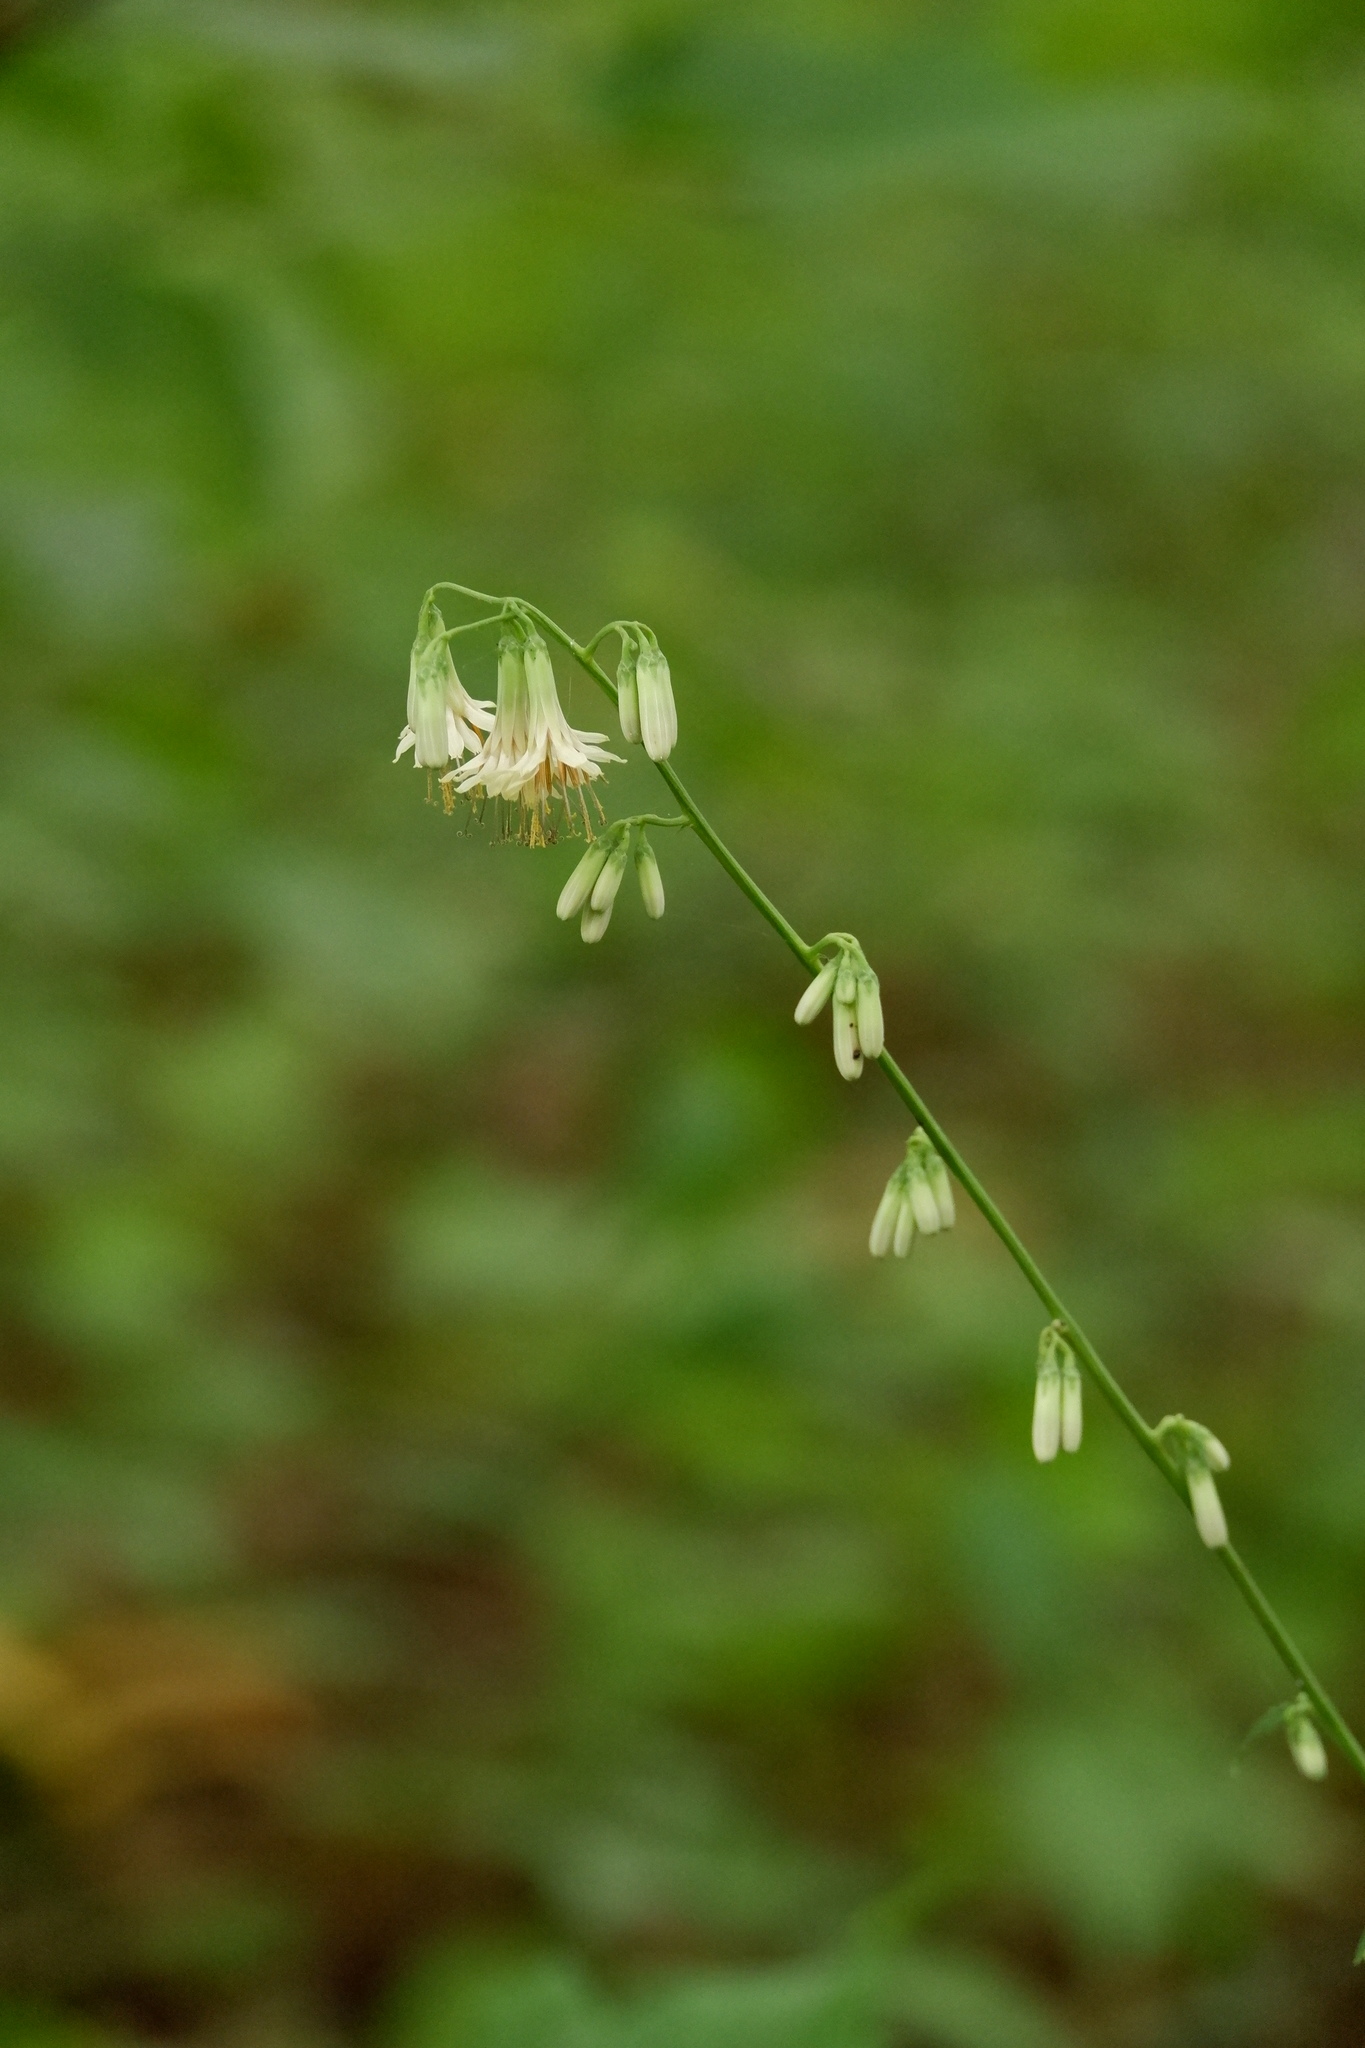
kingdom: Plantae
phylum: Tracheophyta
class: Magnoliopsida
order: Asterales
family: Asteraceae
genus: Nabalus
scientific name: Nabalus trifoliolatus
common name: Gall-of-the-earth
